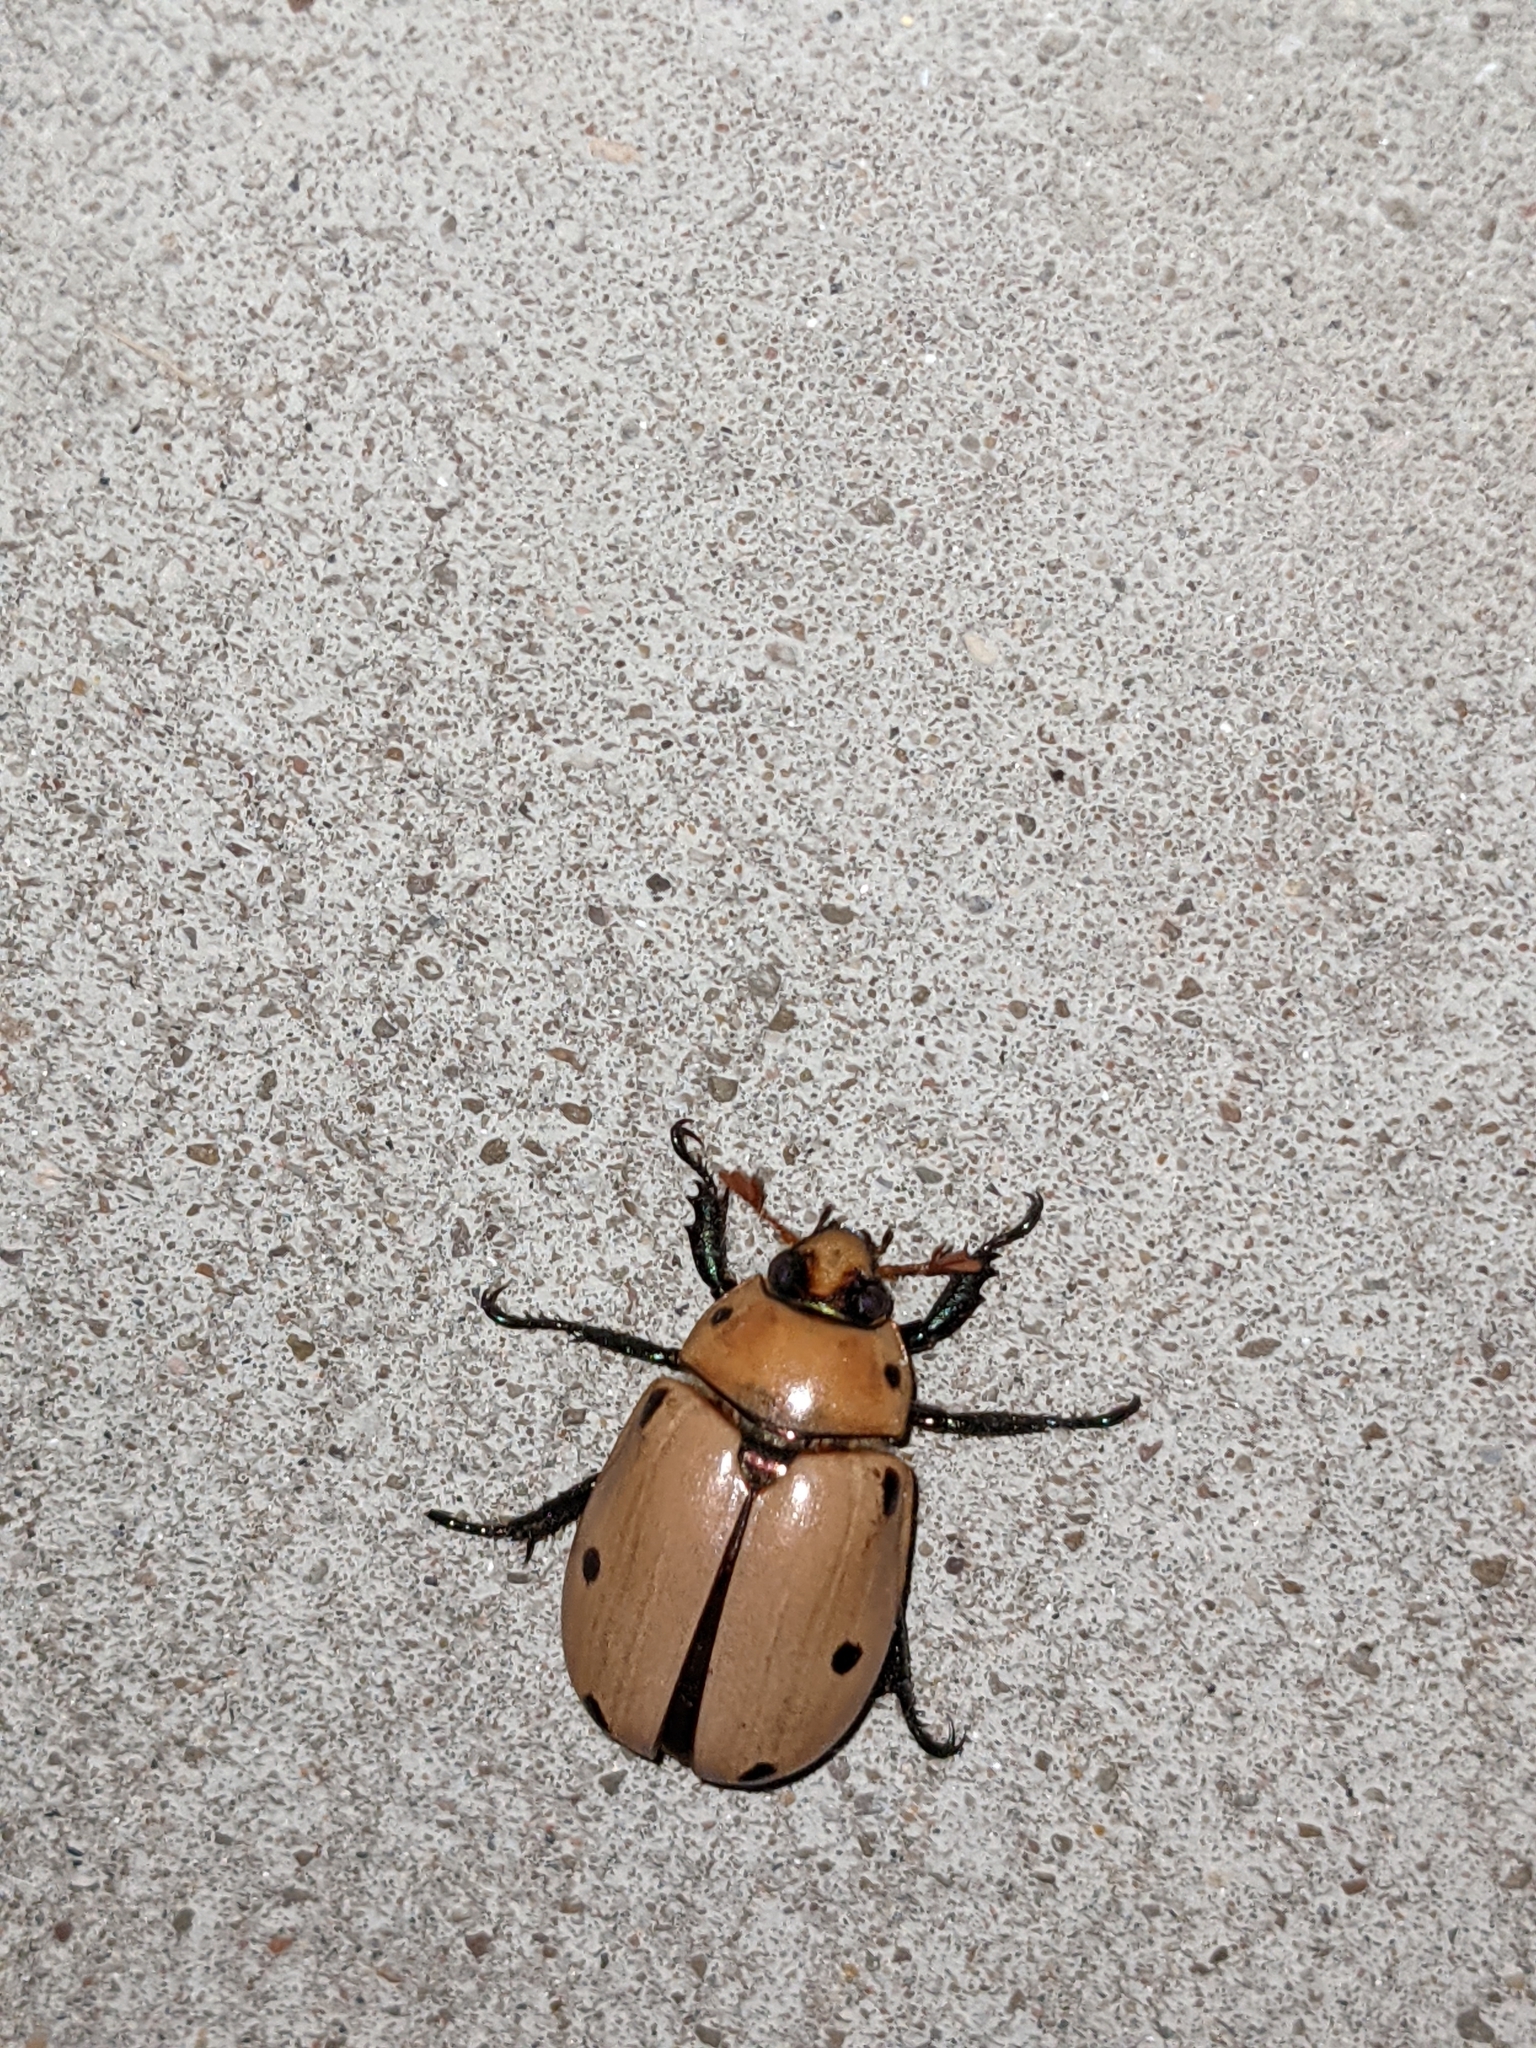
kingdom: Animalia
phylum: Arthropoda
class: Insecta
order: Coleoptera
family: Scarabaeidae
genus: Pelidnota
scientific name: Pelidnota punctata
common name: Grapevine beetle
